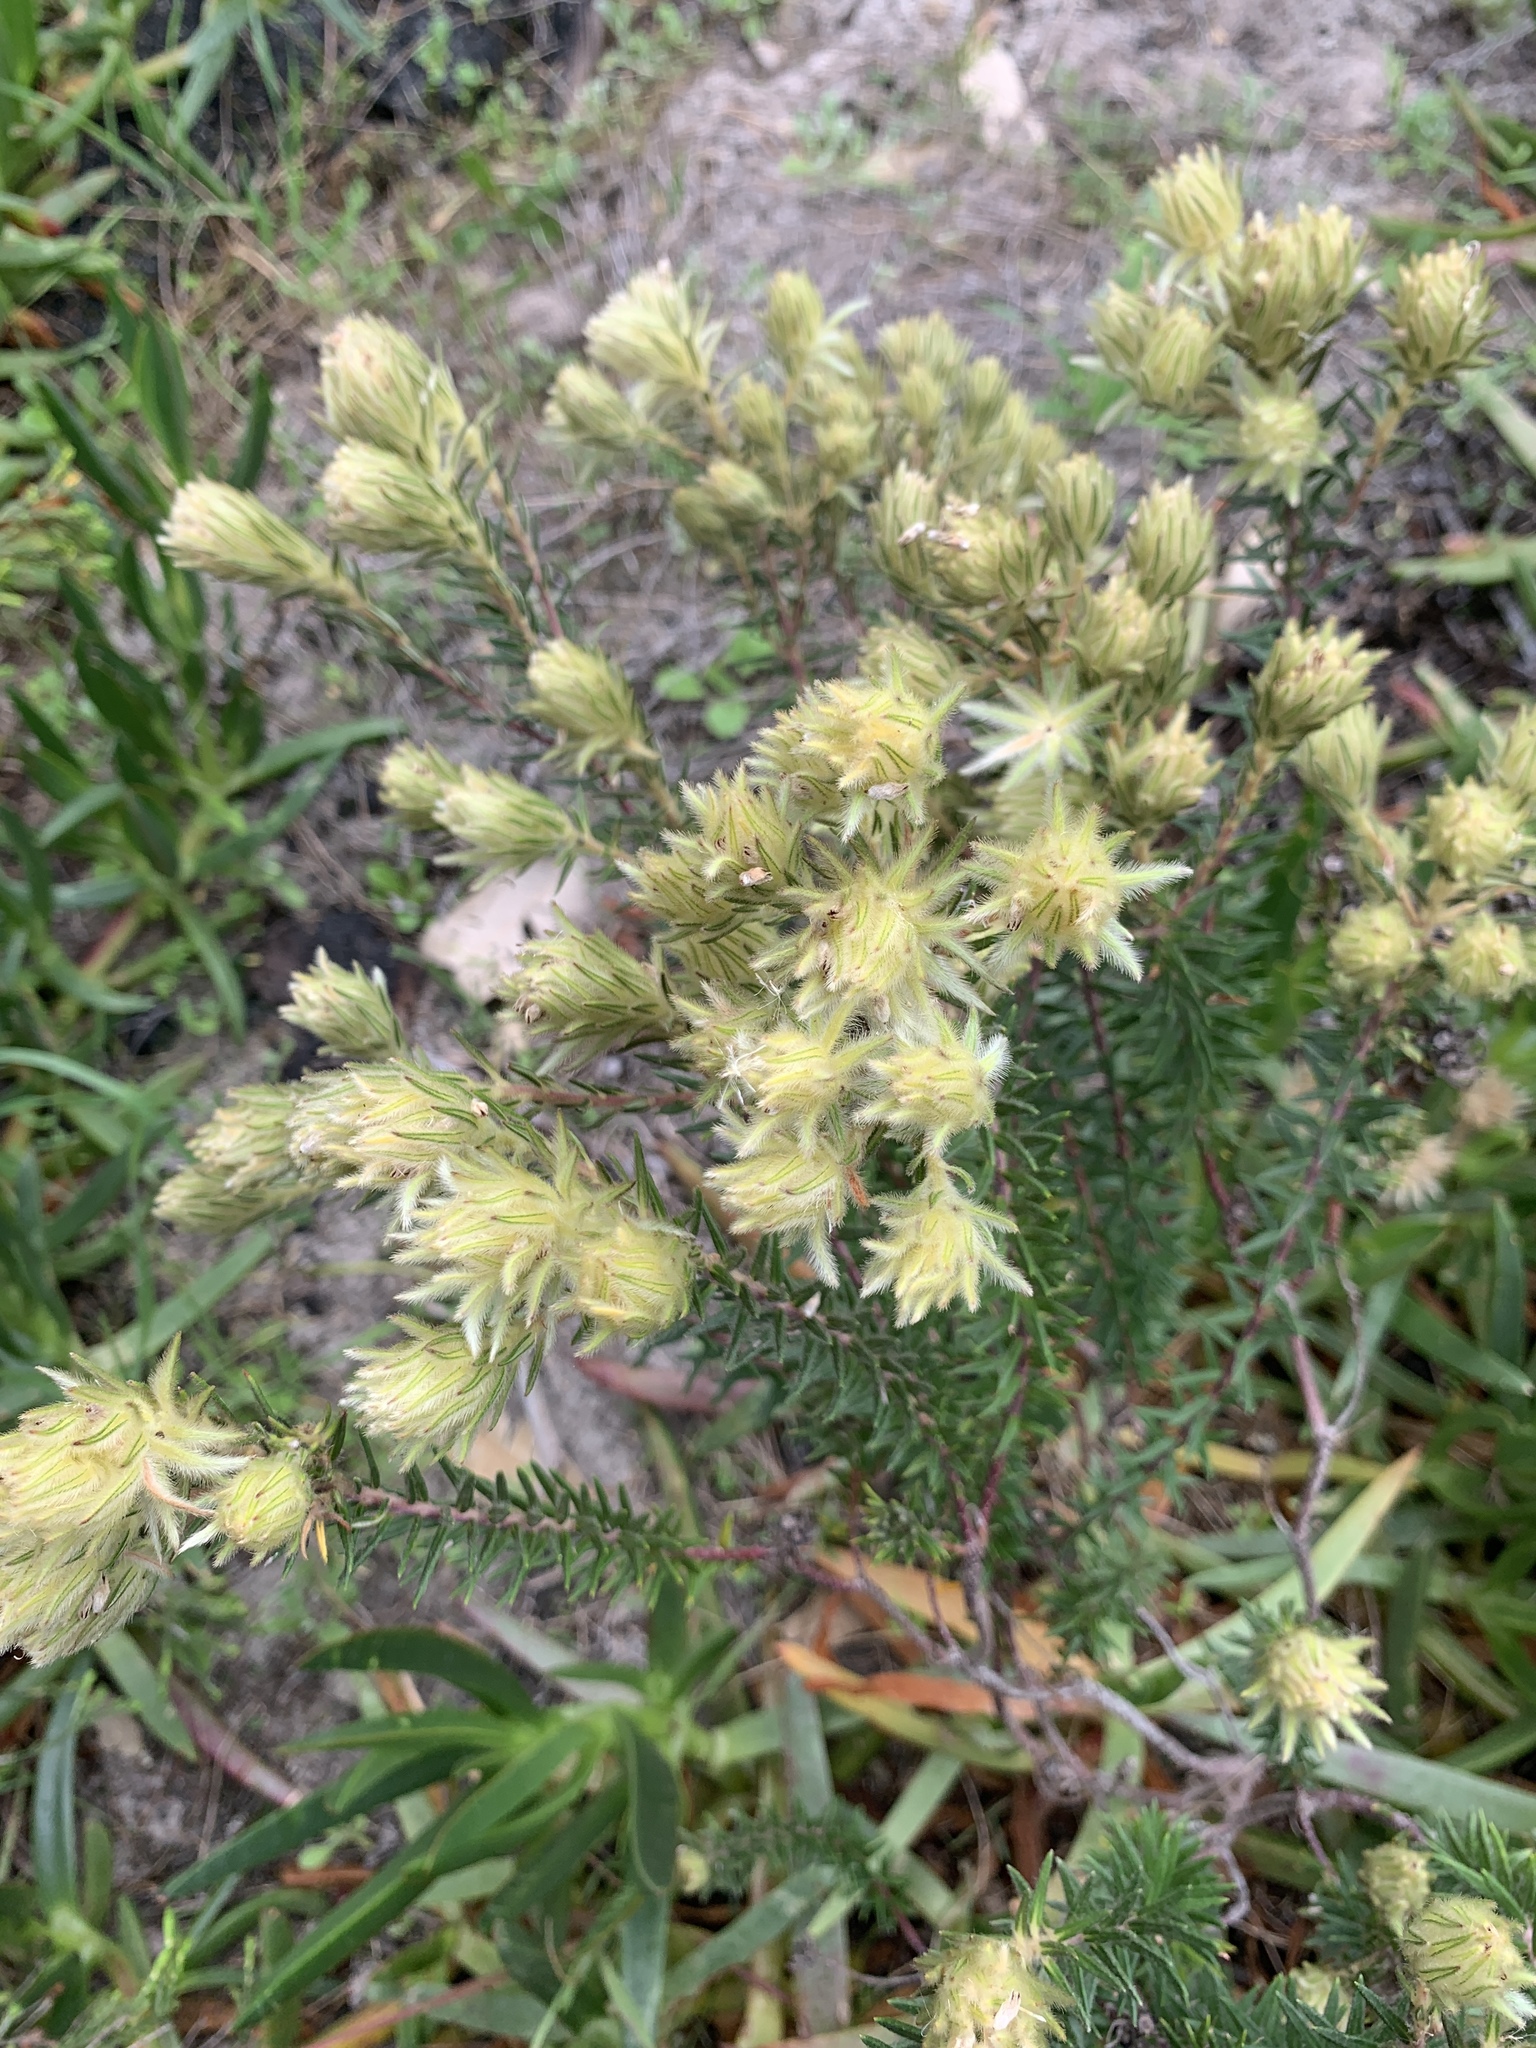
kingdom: Plantae
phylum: Tracheophyta
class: Magnoliopsida
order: Rosales
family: Rhamnaceae
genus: Phylica
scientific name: Phylica pubescens
